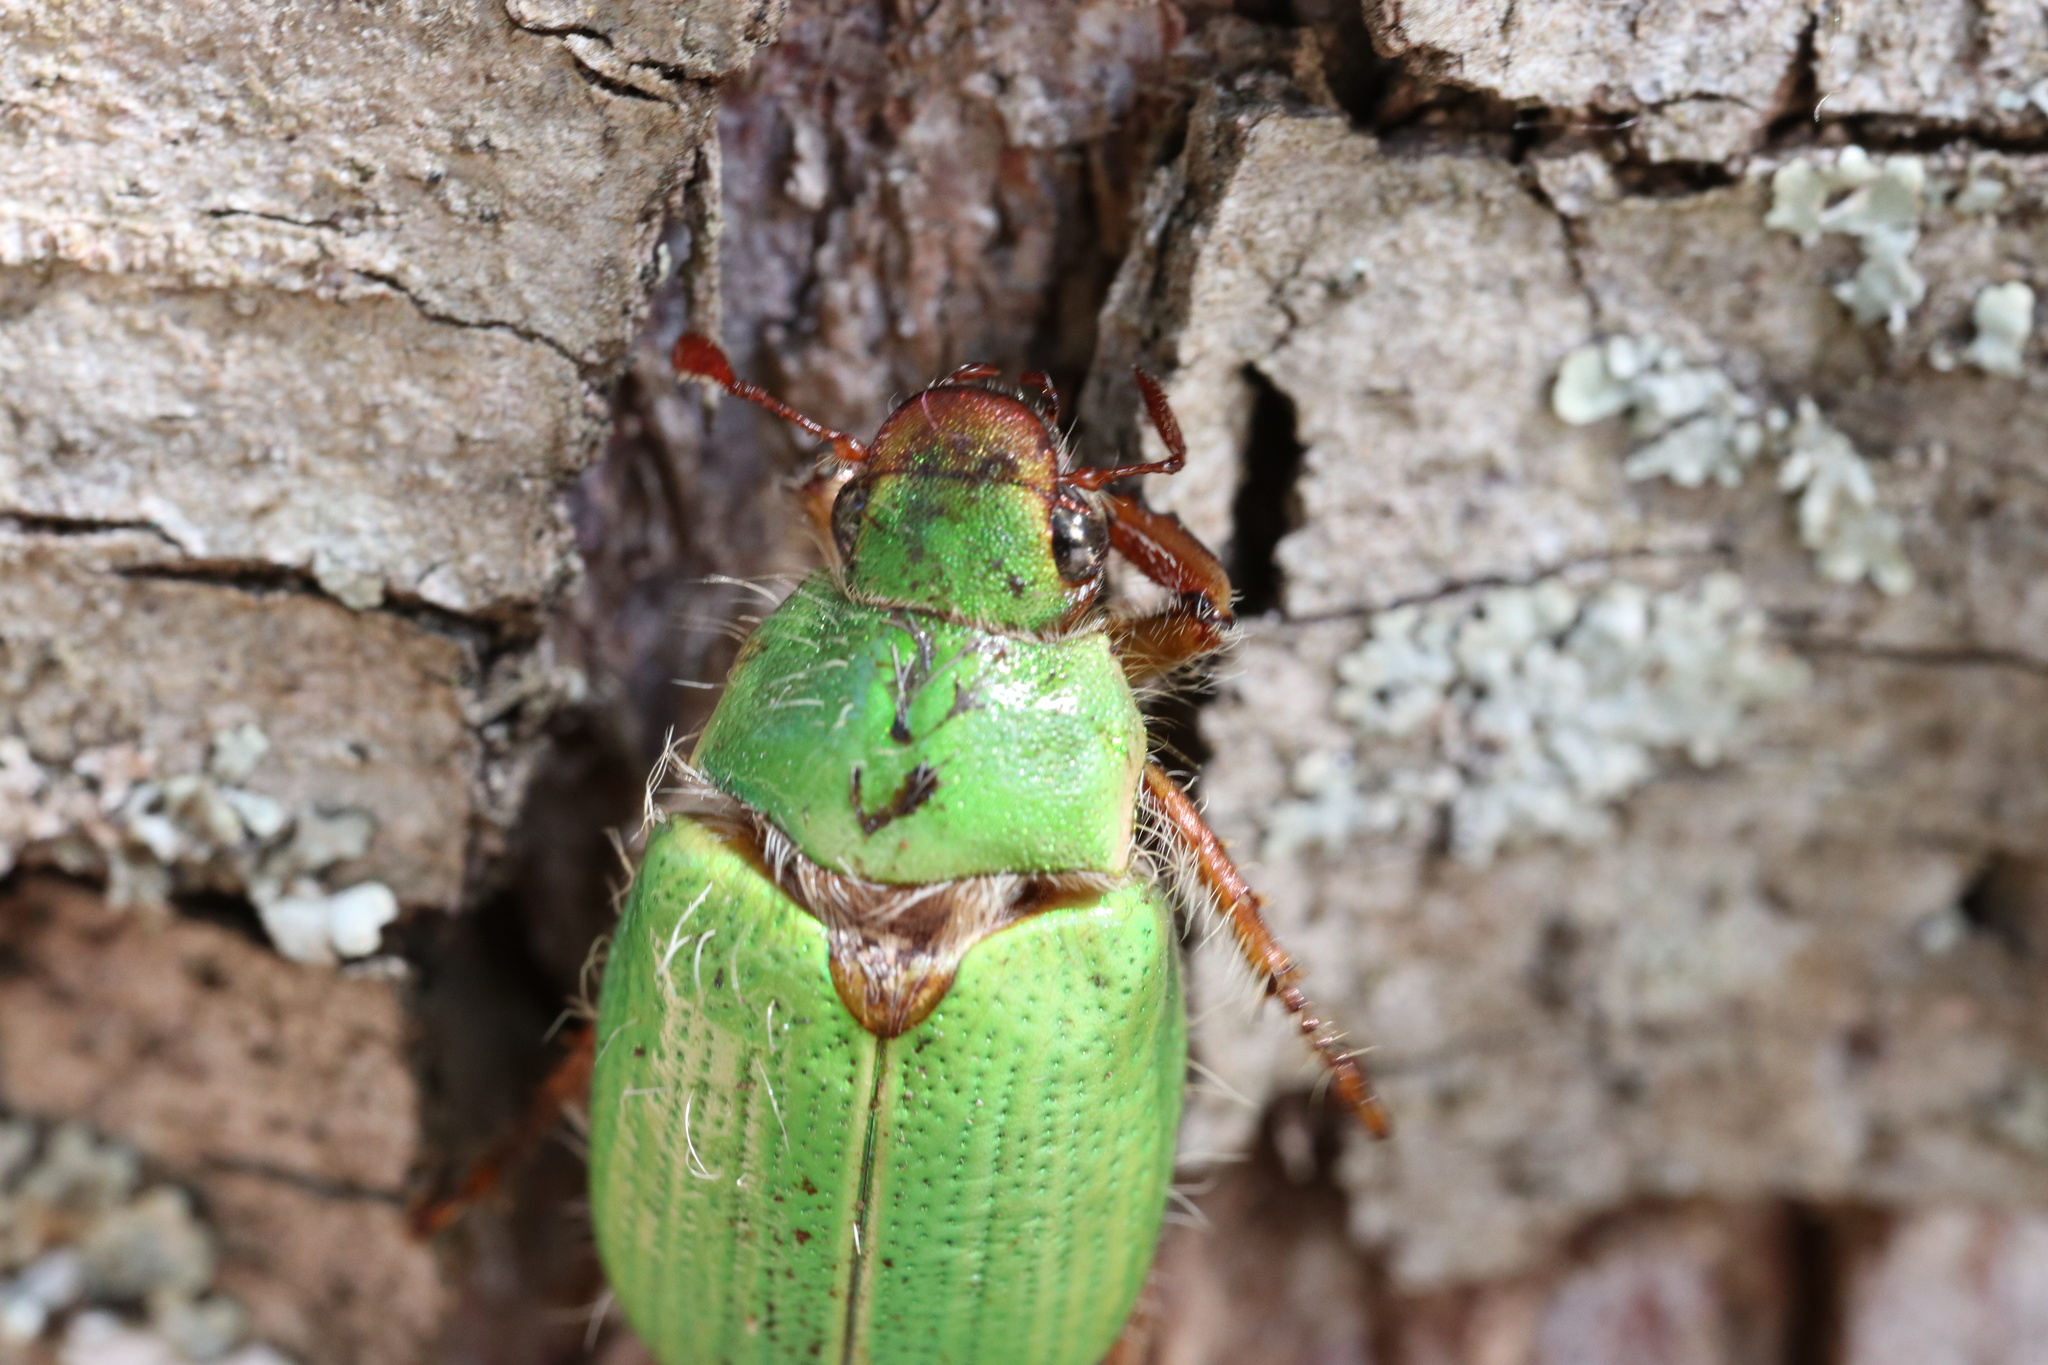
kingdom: Animalia
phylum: Arthropoda
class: Insecta
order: Coleoptera
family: Scarabaeidae
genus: Brachysternus
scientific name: Brachysternus prasinus
